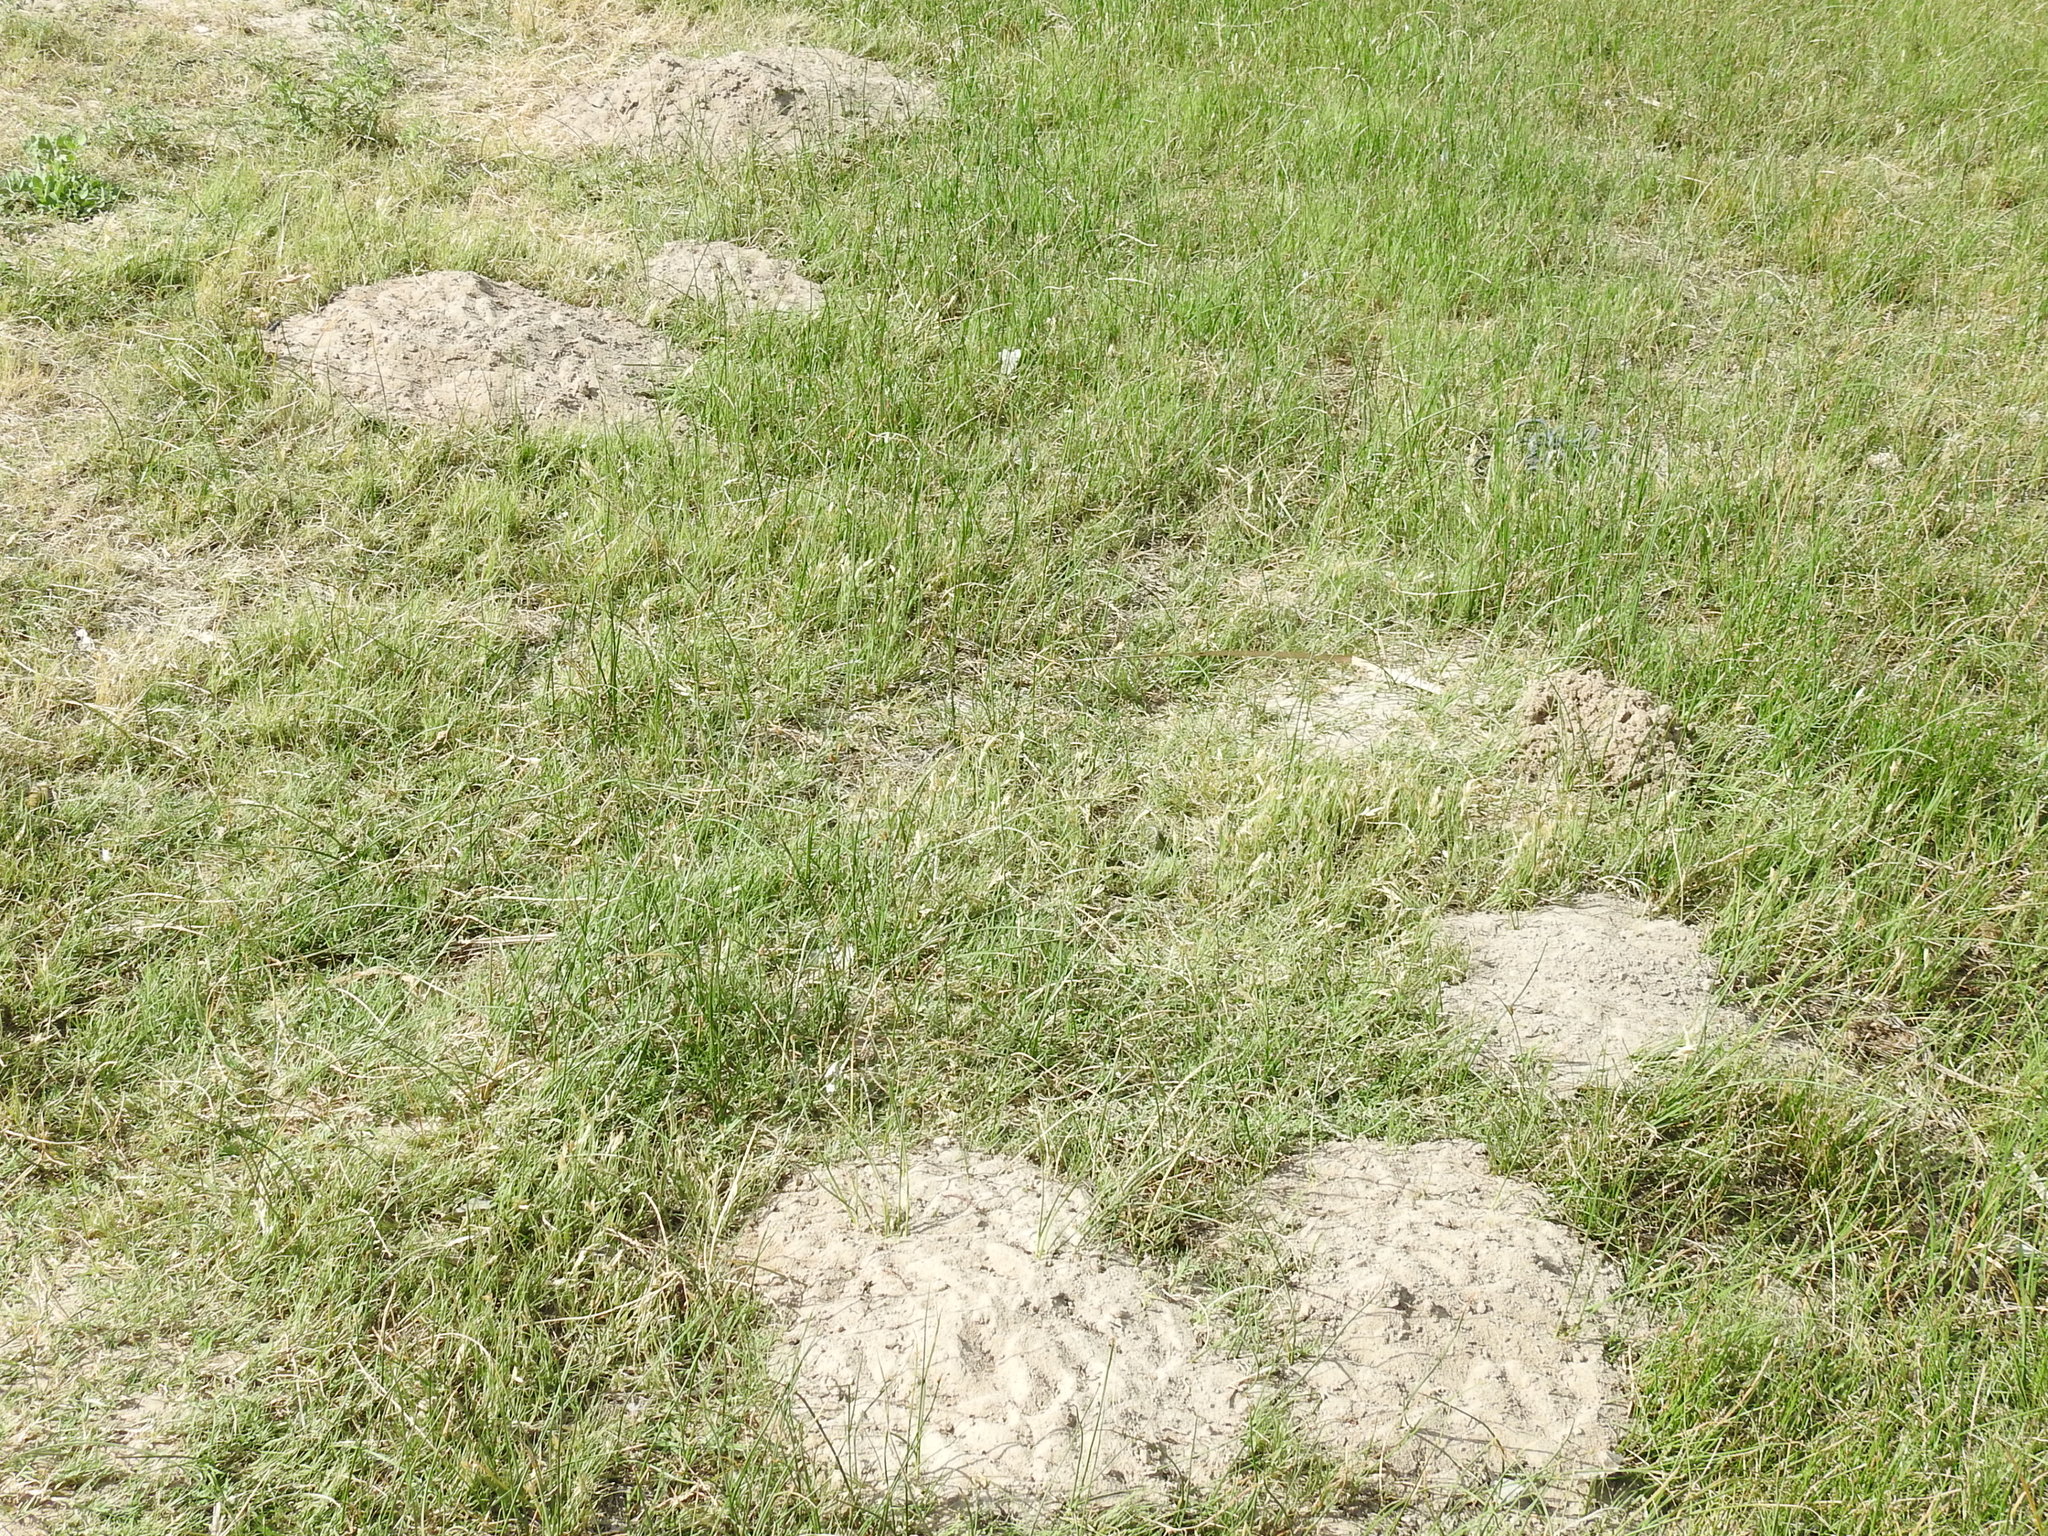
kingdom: Animalia
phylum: Chordata
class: Mammalia
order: Rodentia
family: Geomyidae
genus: Geomys
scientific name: Geomys bursarius
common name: Plains pocket gopher
